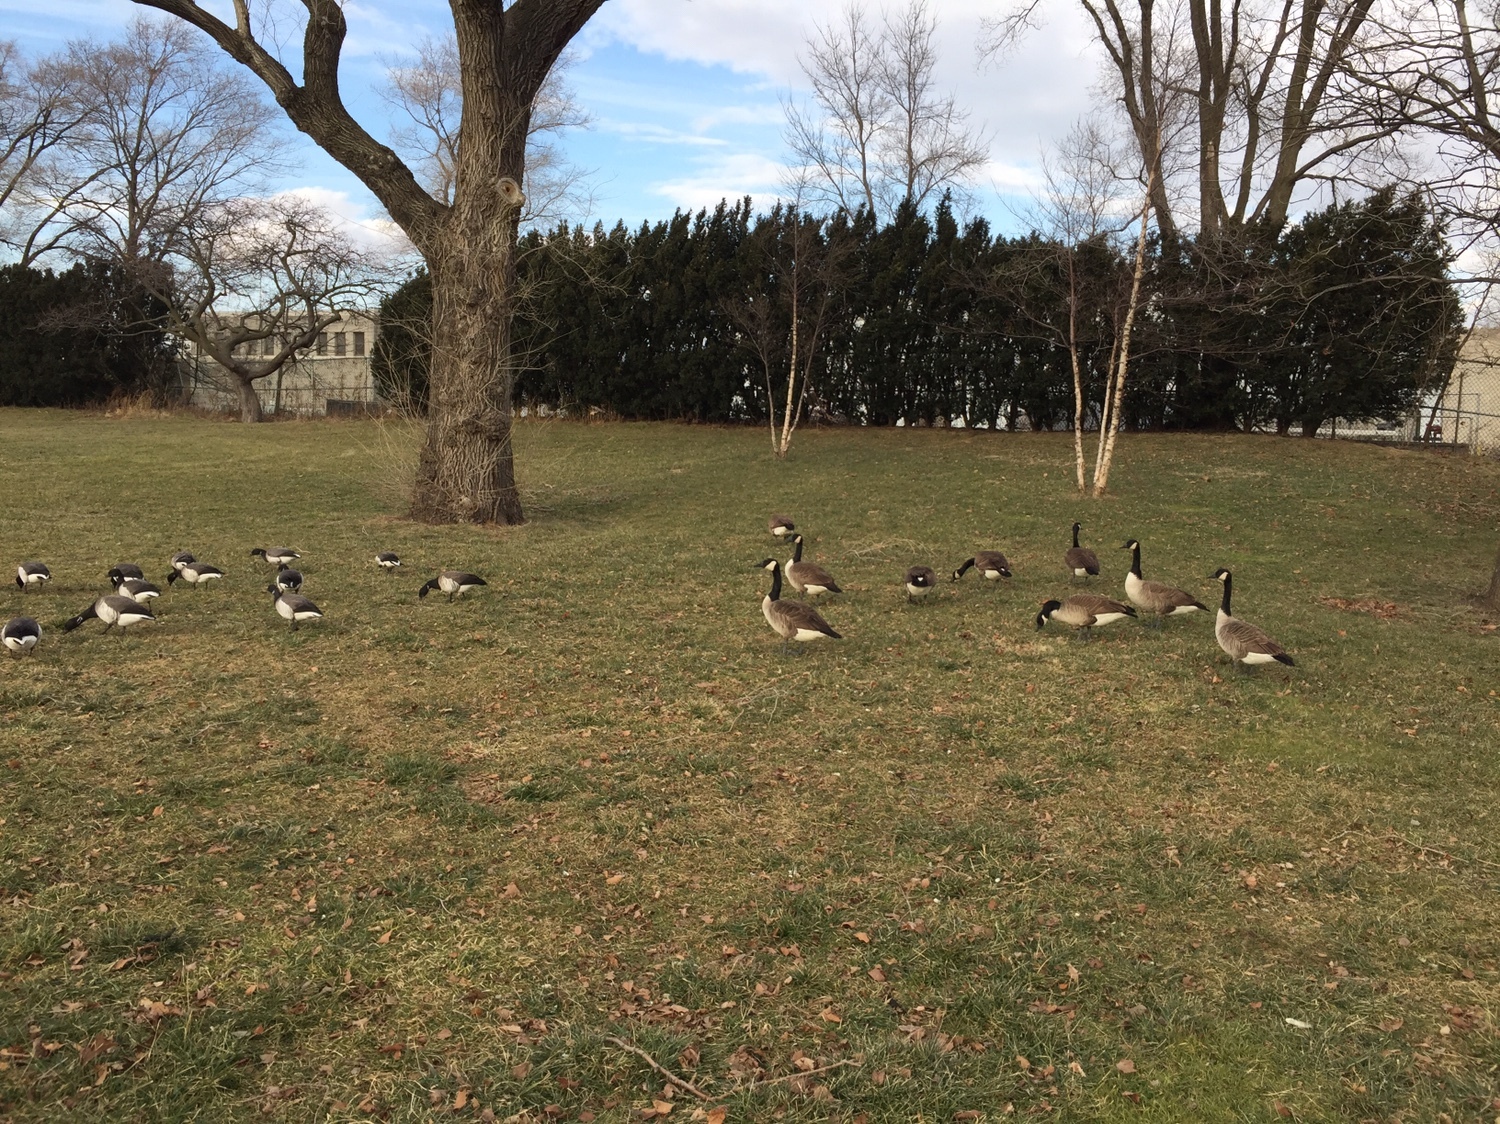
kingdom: Animalia
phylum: Chordata
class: Aves
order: Anseriformes
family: Anatidae
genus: Branta
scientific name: Branta canadensis
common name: Canada goose
